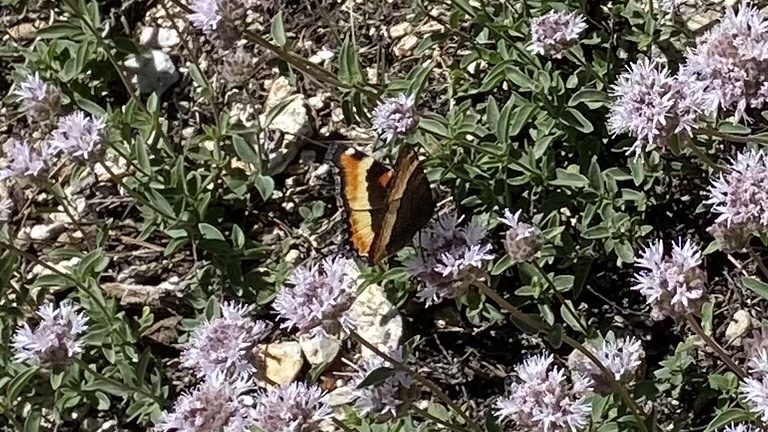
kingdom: Animalia
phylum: Arthropoda
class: Insecta
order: Lepidoptera
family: Nymphalidae
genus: Aglais
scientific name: Aglais milberti
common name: Milbert's tortoiseshell
